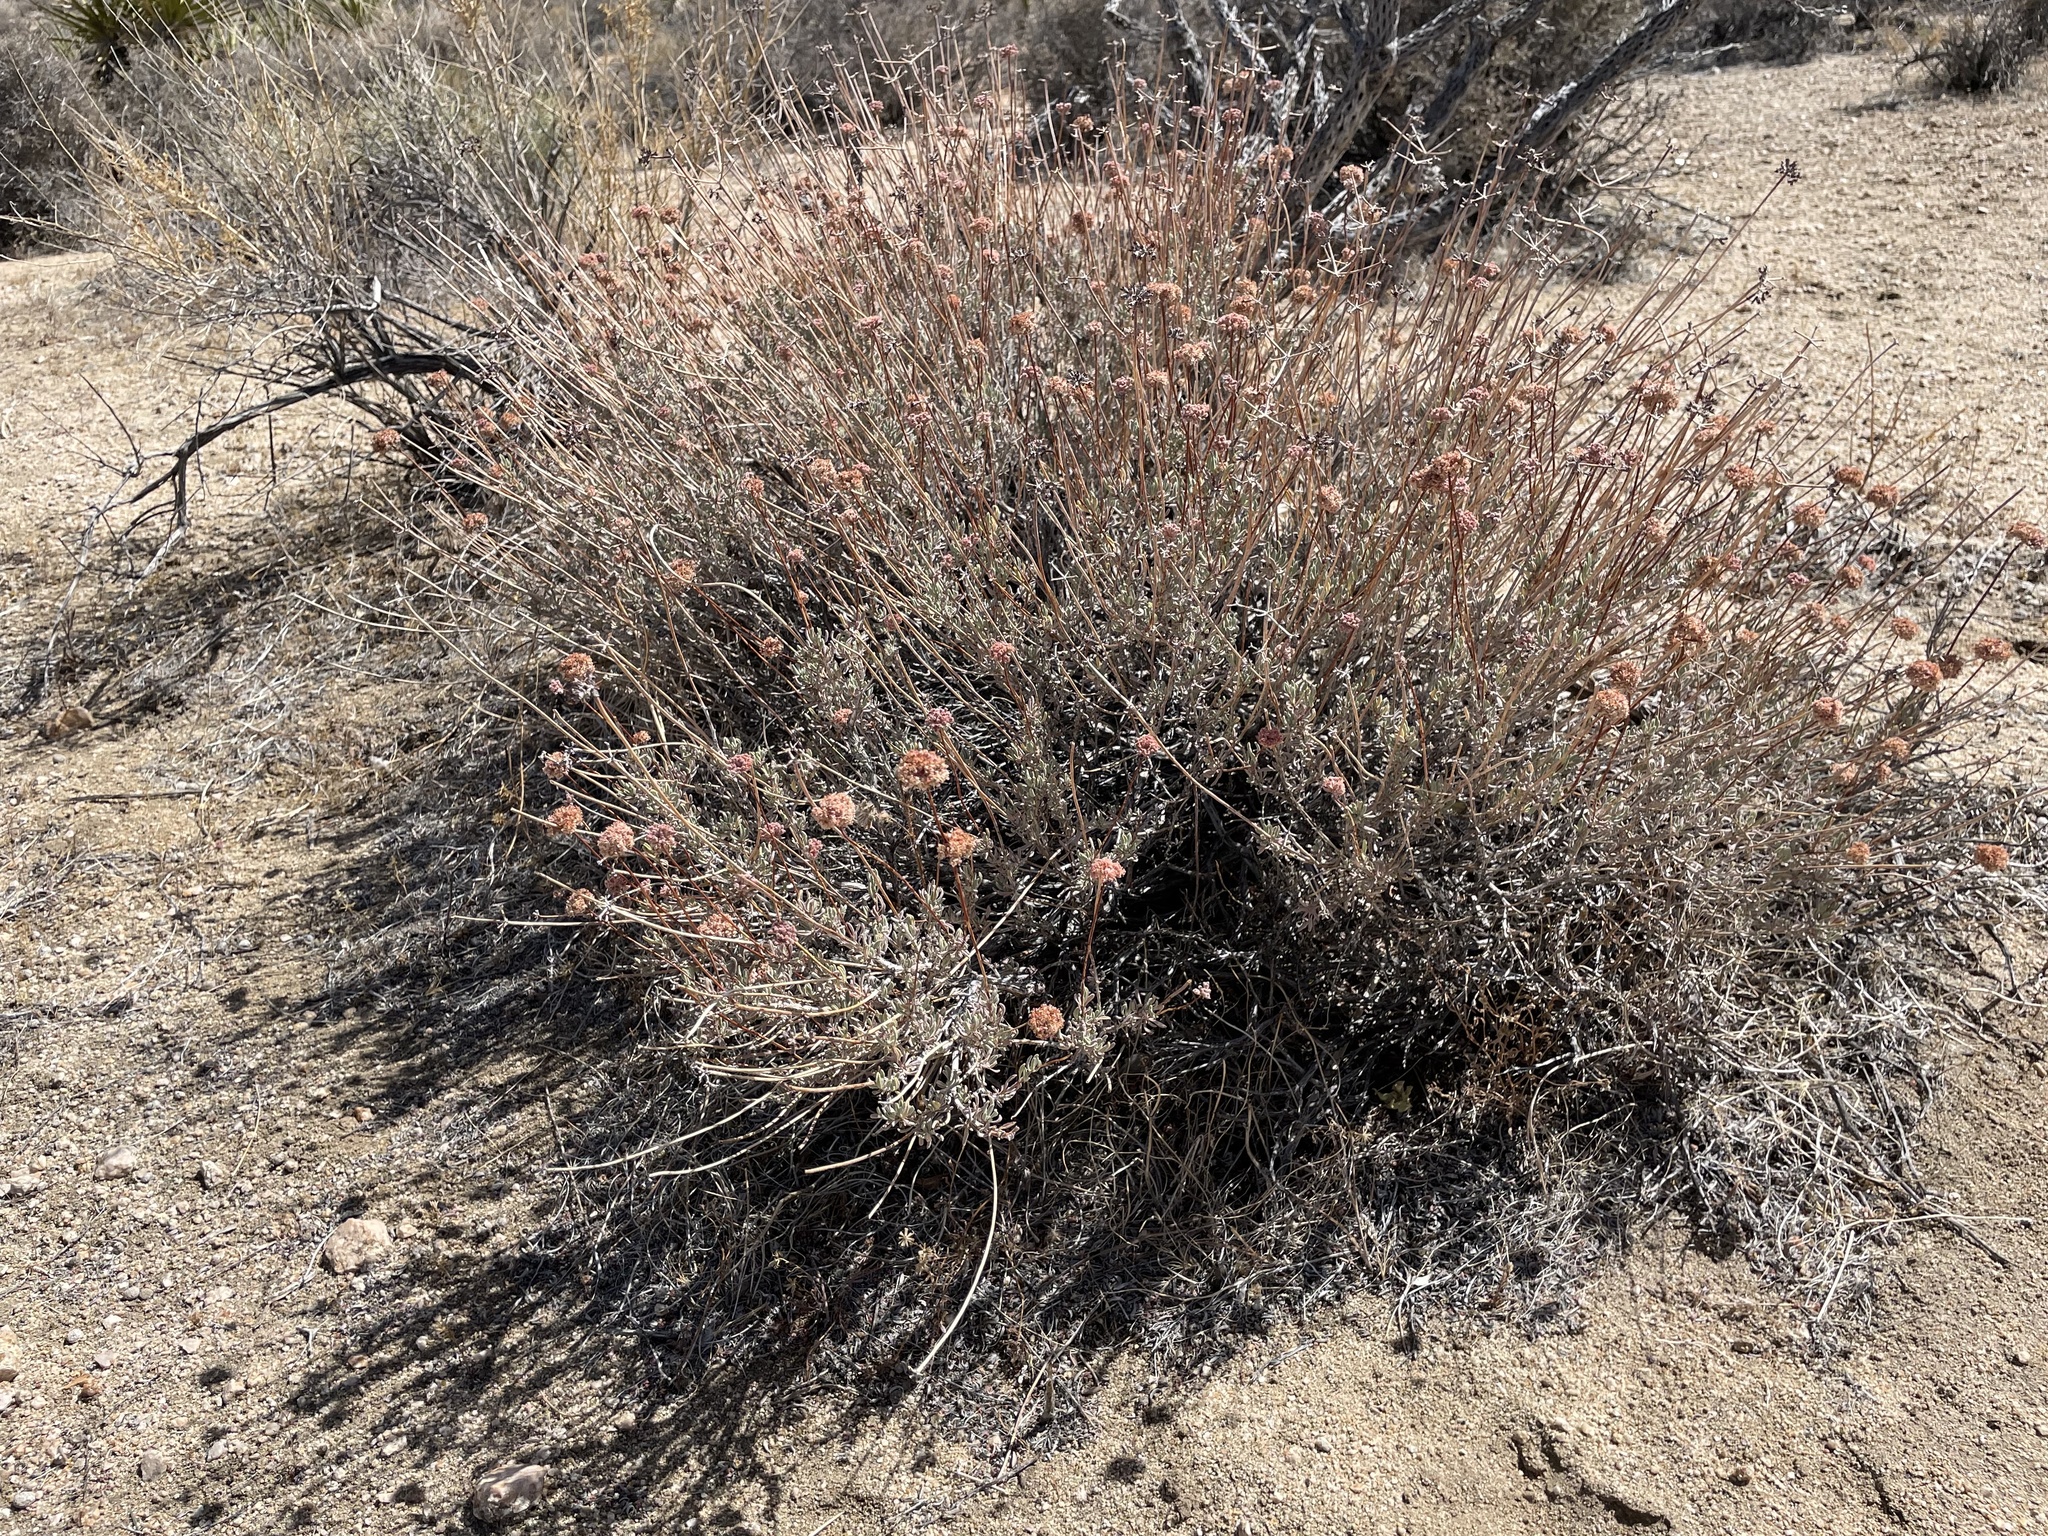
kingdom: Plantae
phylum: Tracheophyta
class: Magnoliopsida
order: Caryophyllales
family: Polygonaceae
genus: Eriogonum
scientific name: Eriogonum fasciculatum
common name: California wild buckwheat
